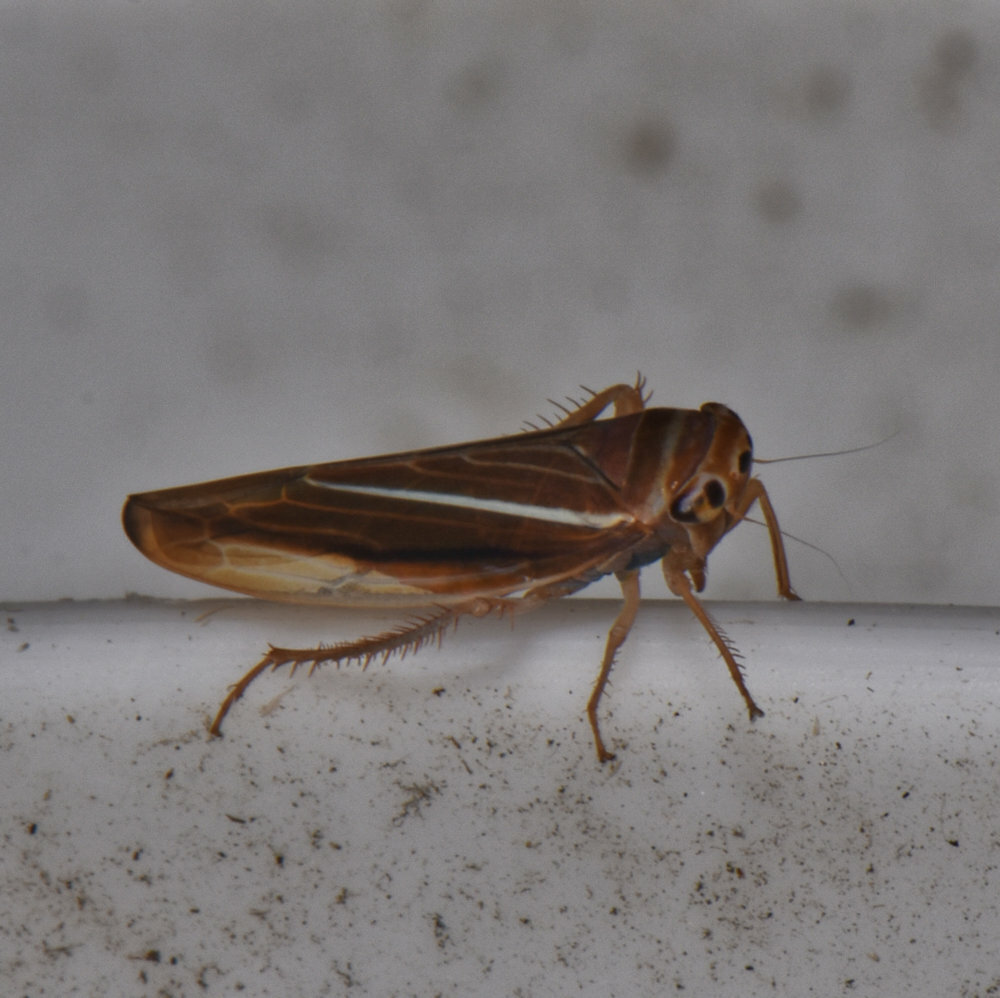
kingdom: Animalia
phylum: Arthropoda
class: Insecta
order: Hemiptera
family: Cicadellidae
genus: Idiodonus
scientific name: Idiodonus kennicotti
